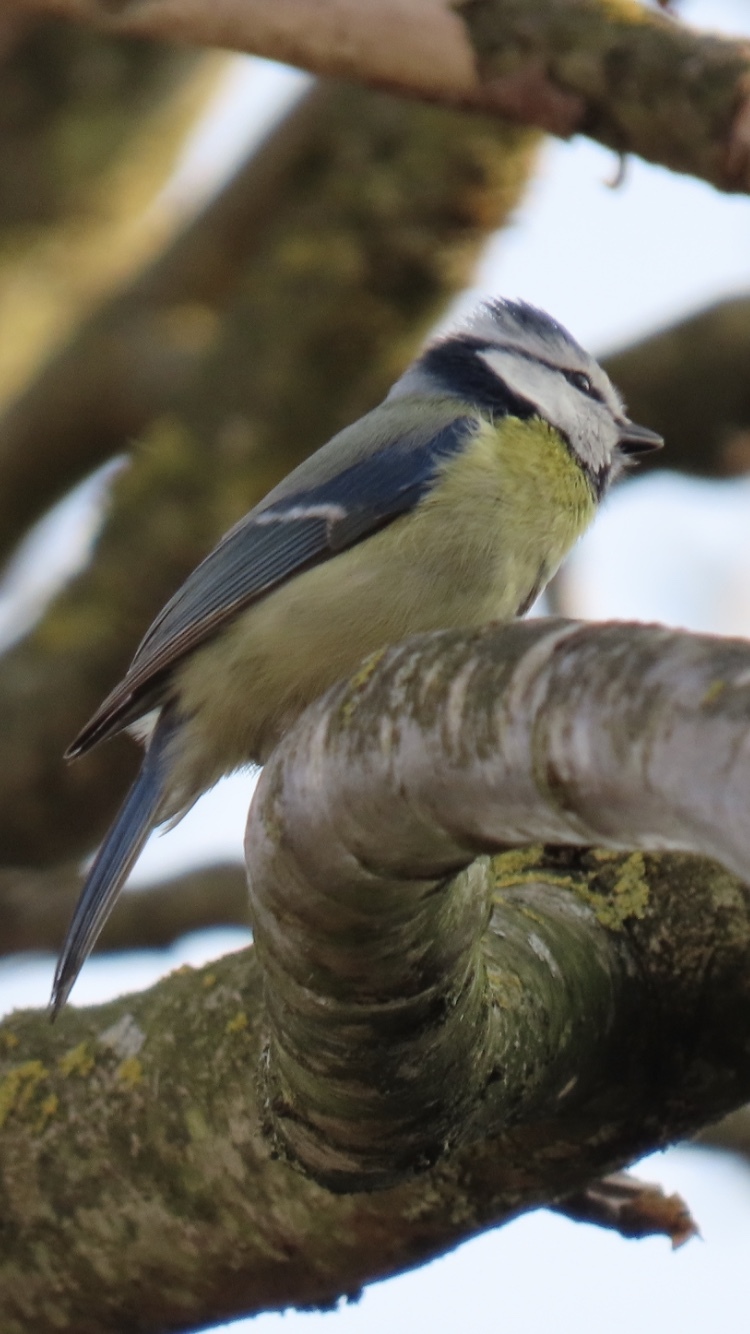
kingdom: Animalia
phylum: Chordata
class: Aves
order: Passeriformes
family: Paridae
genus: Cyanistes
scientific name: Cyanistes caeruleus
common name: Eurasian blue tit
